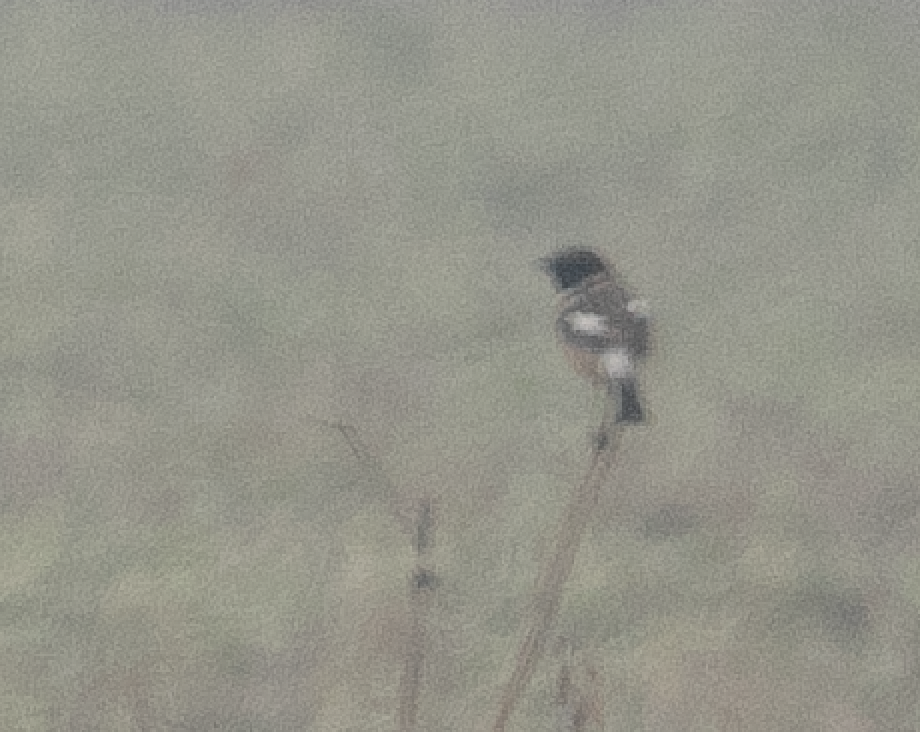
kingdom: Animalia
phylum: Chordata
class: Aves
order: Passeriformes
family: Muscicapidae
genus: Saxicola
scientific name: Saxicola rubicola
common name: European stonechat
